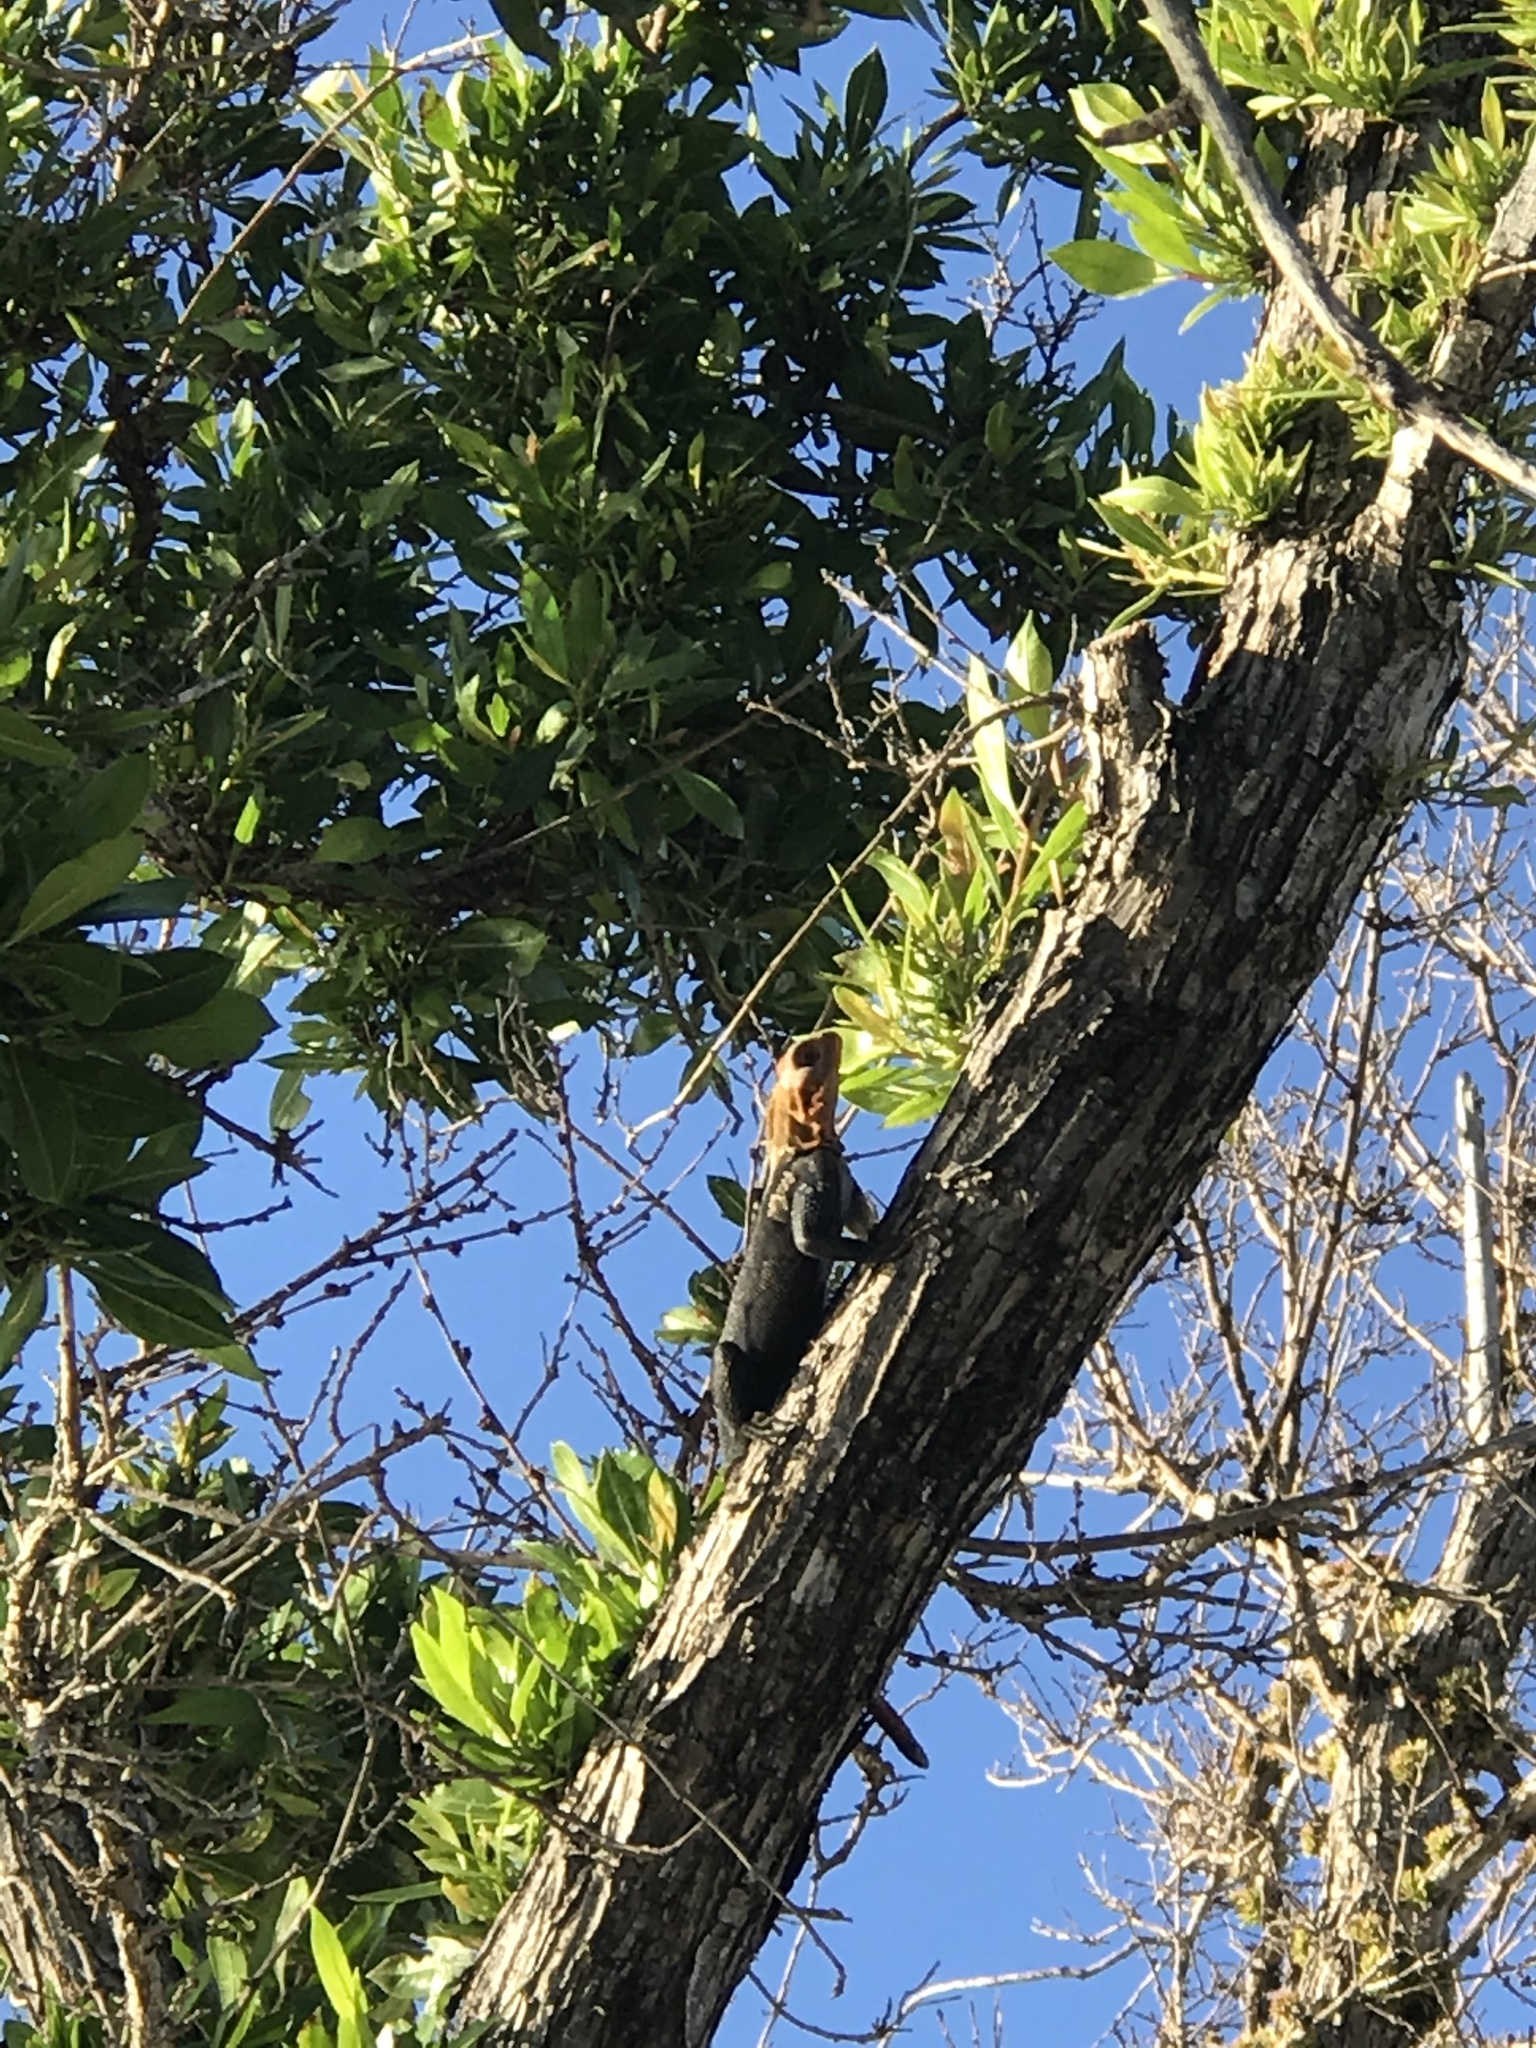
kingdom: Animalia
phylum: Chordata
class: Squamata
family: Agamidae
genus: Agama
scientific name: Agama picticauda
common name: Red-headed agama
